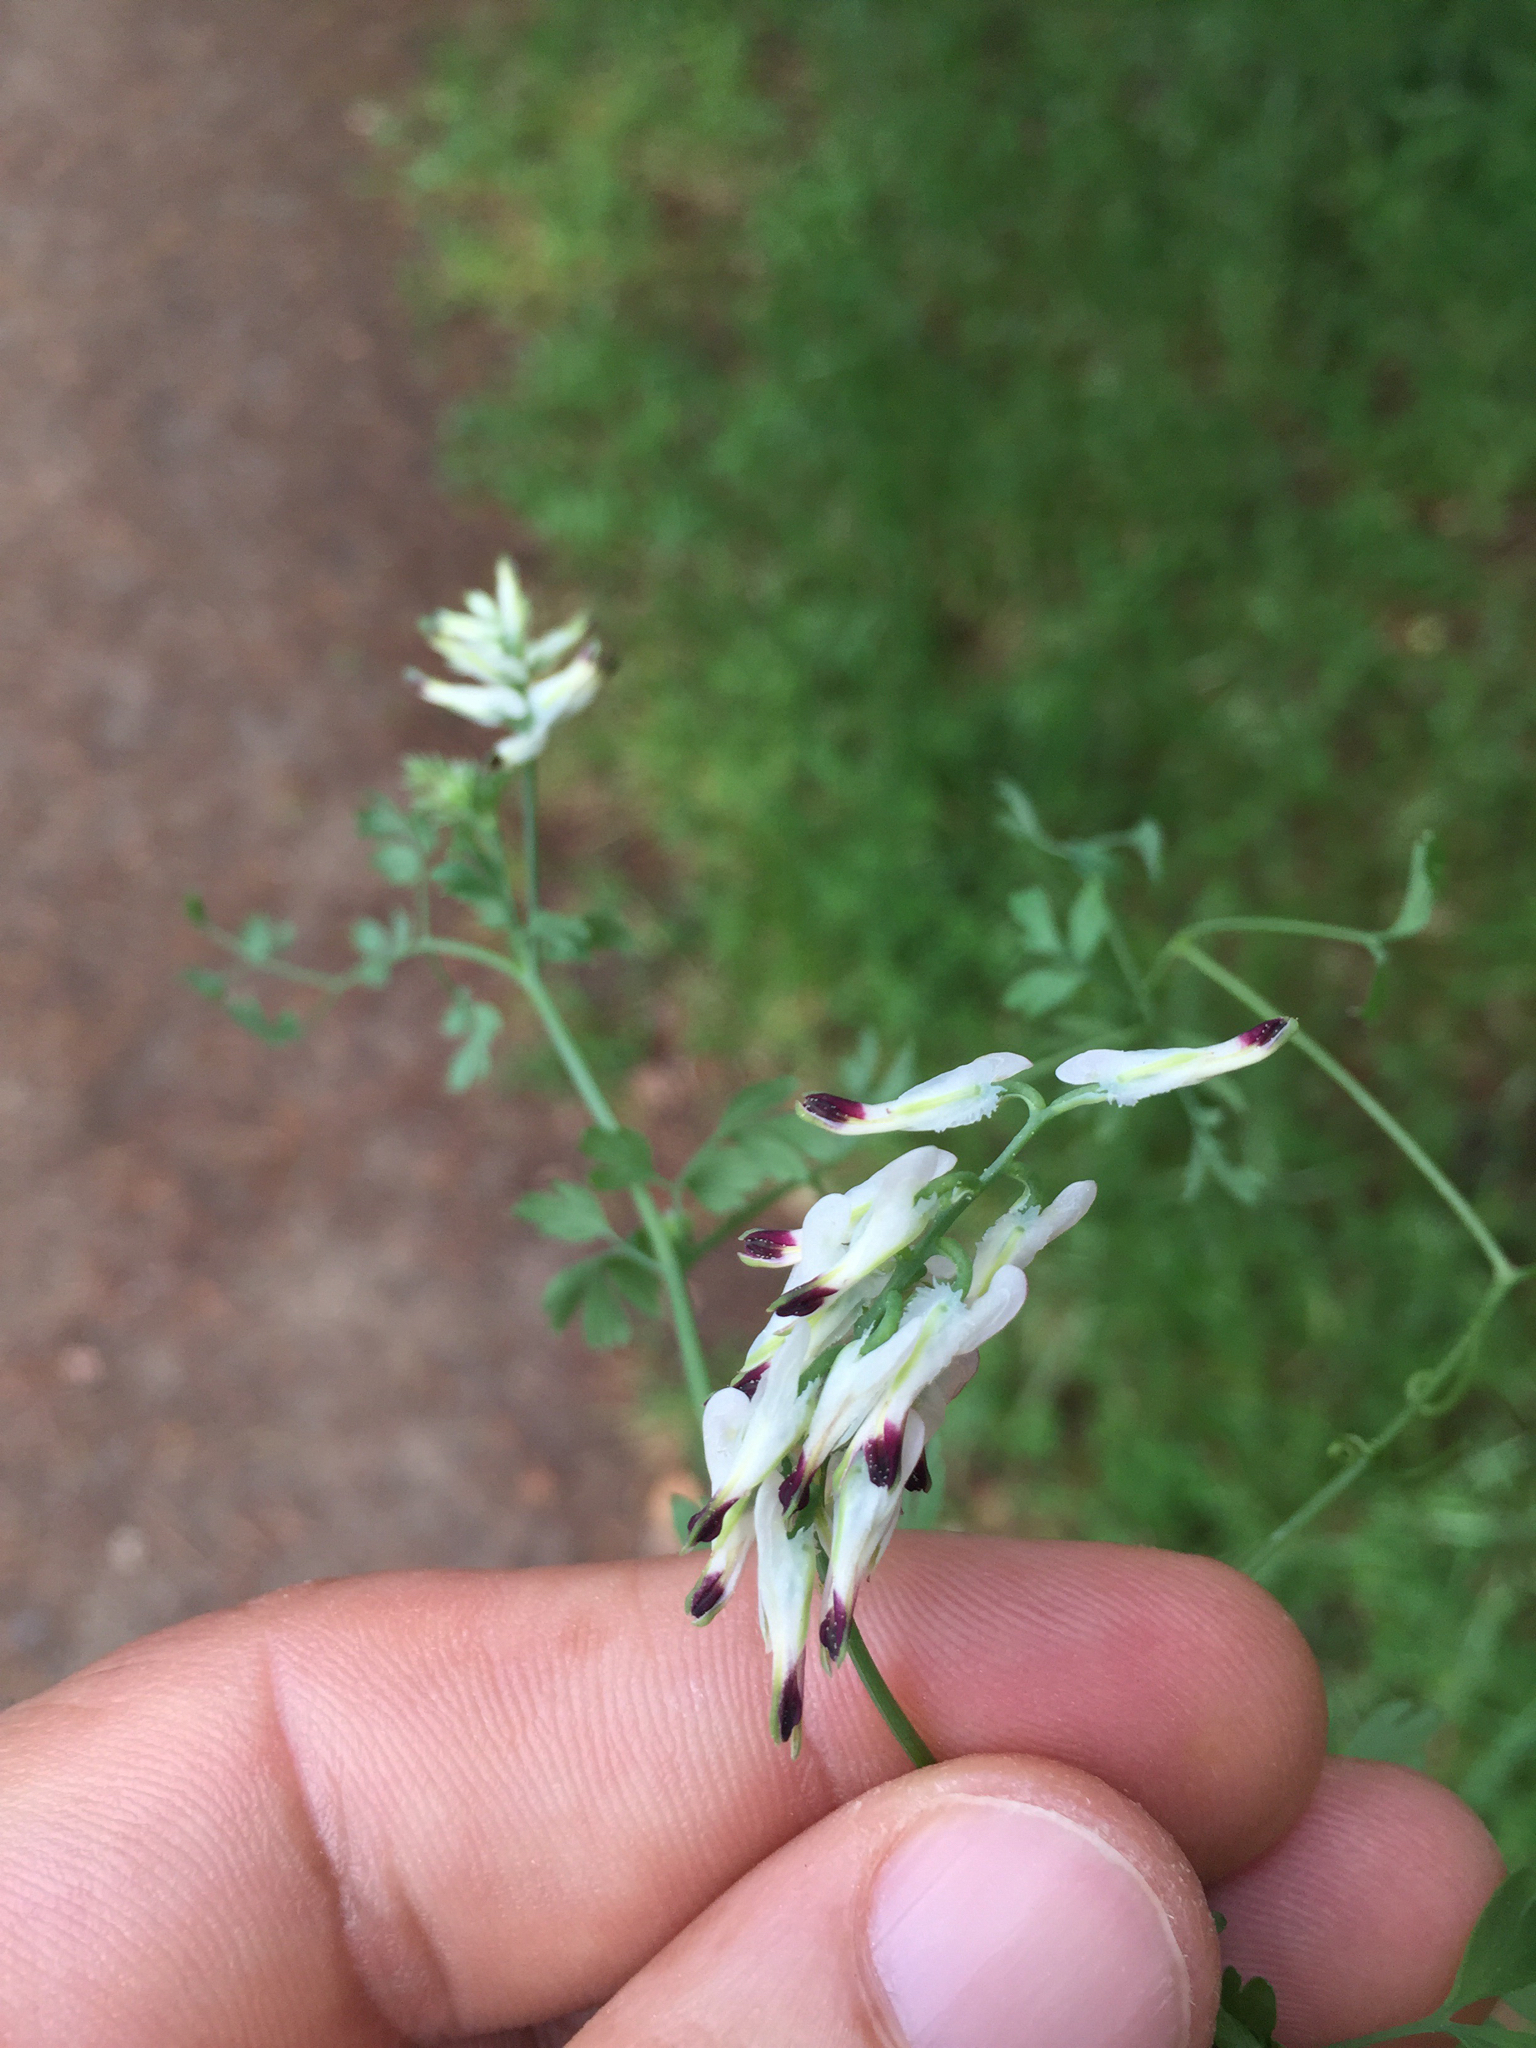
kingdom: Plantae
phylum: Tracheophyta
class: Magnoliopsida
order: Ranunculales
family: Papaveraceae
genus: Fumaria
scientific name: Fumaria capreolata
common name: White ramping-fumitory
